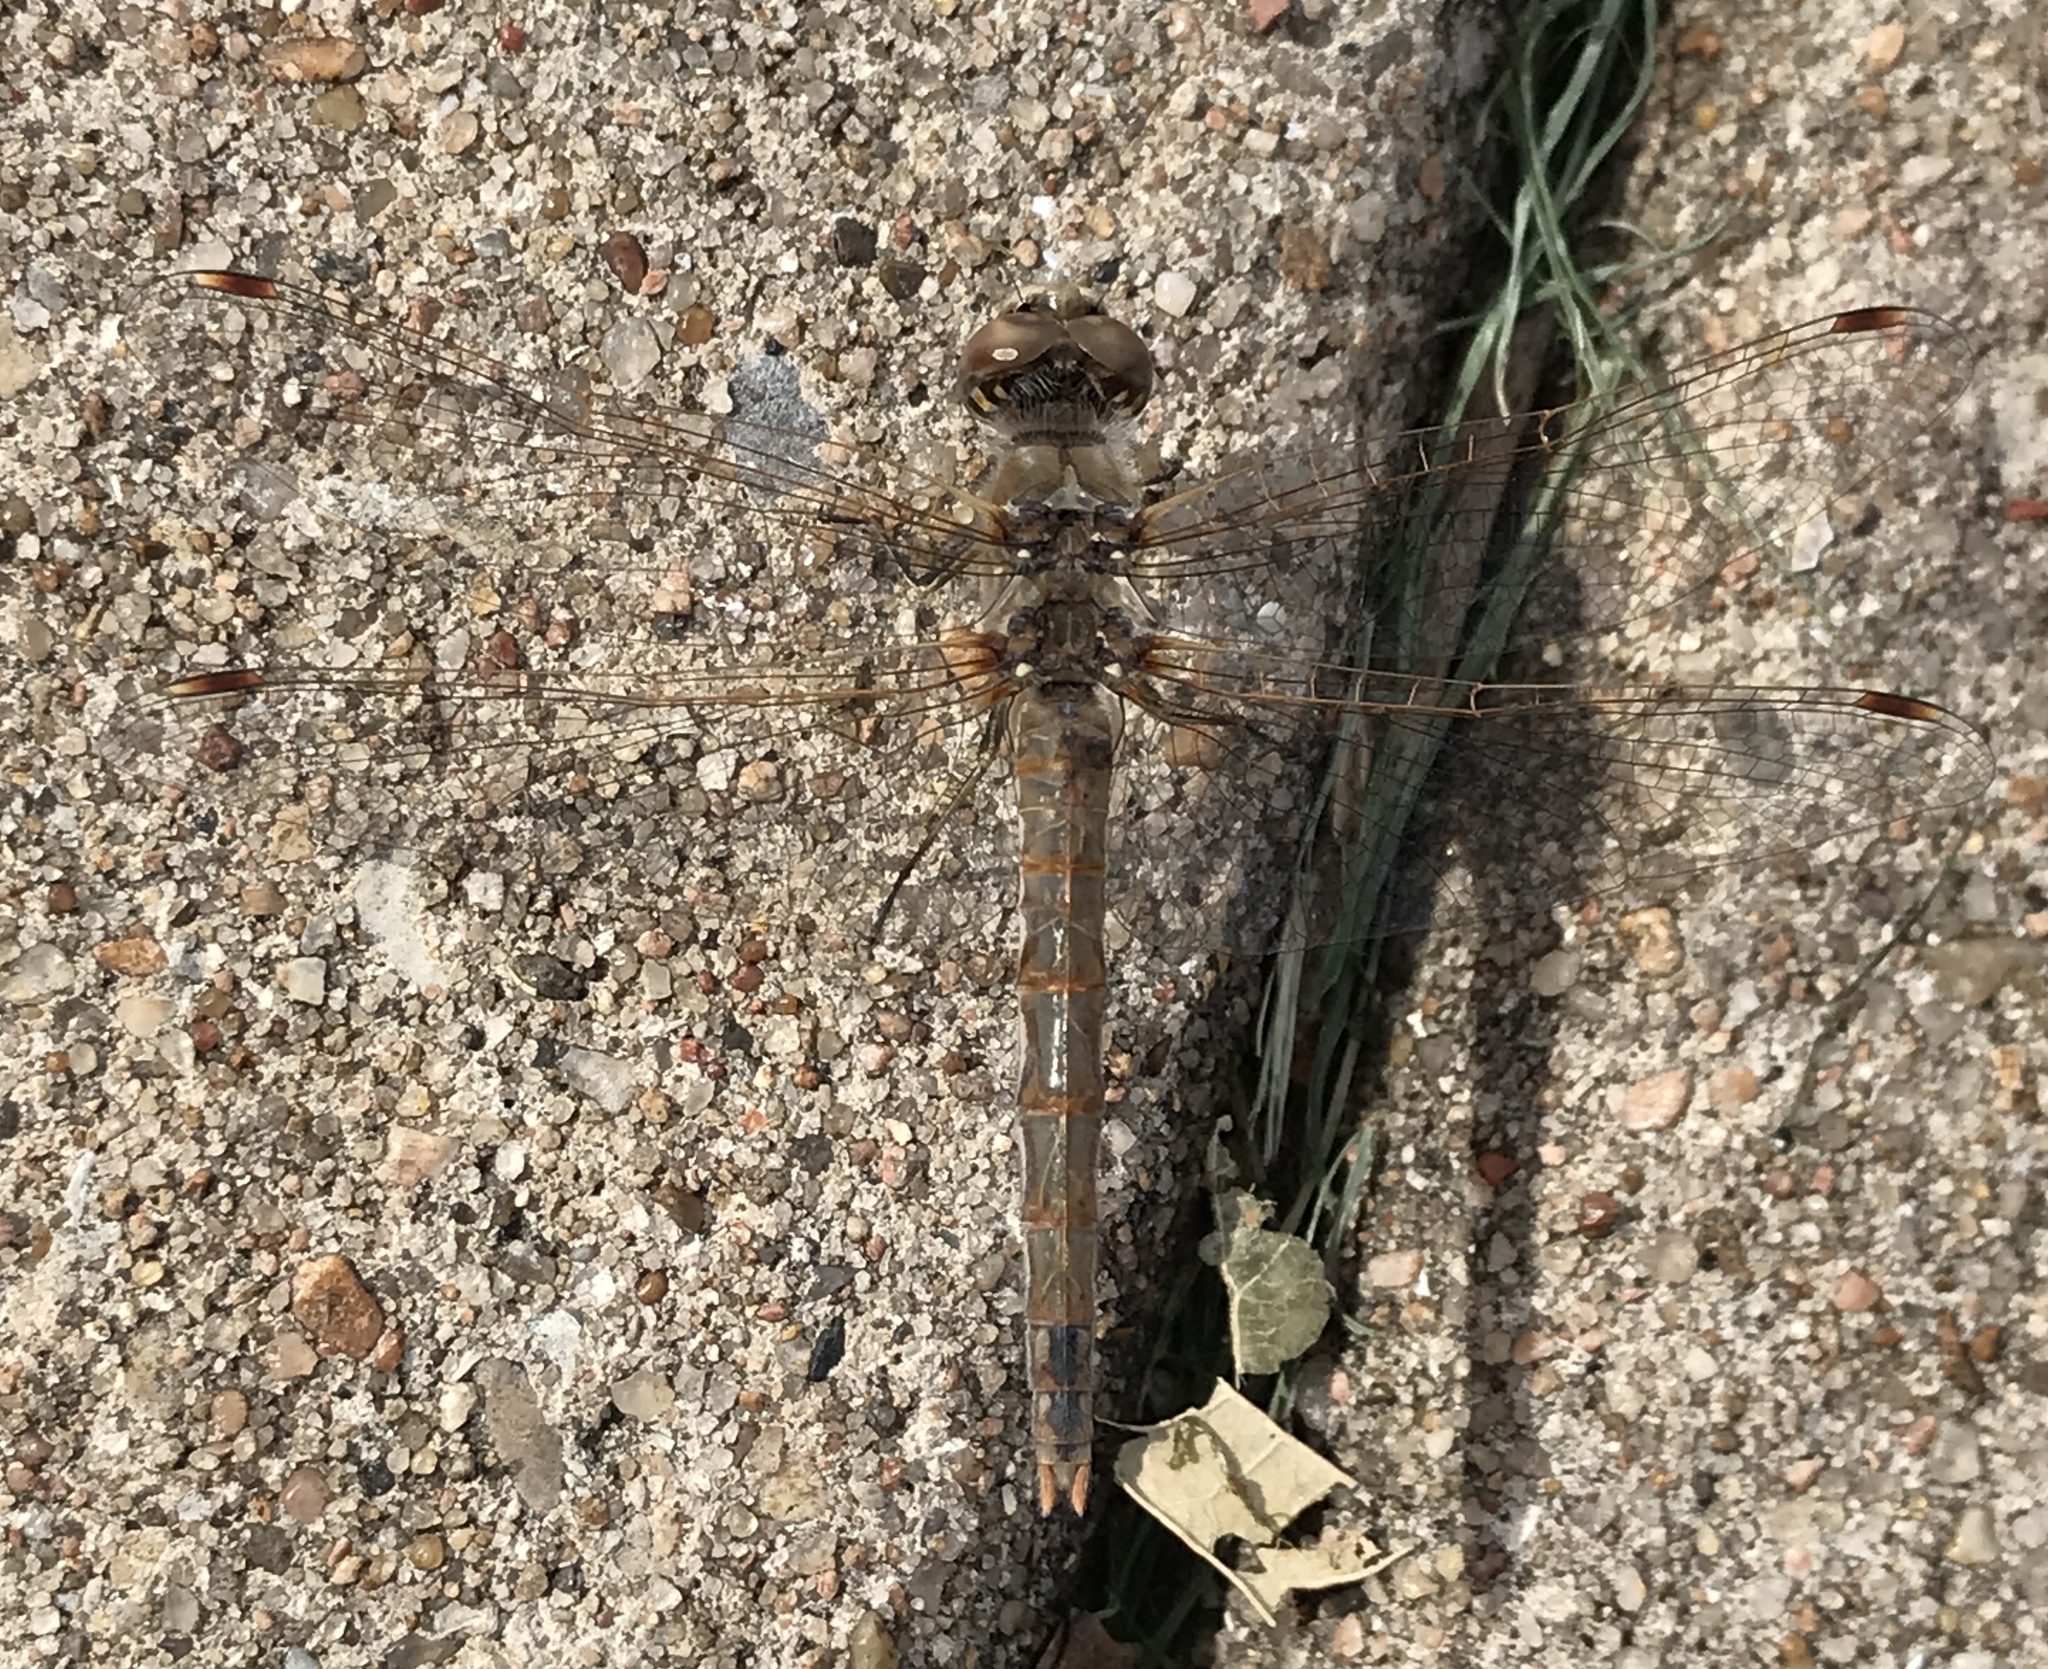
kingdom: Animalia
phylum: Arthropoda
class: Insecta
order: Odonata
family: Libellulidae
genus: Sympetrum
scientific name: Sympetrum corruptum
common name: Variegated meadowhawk
